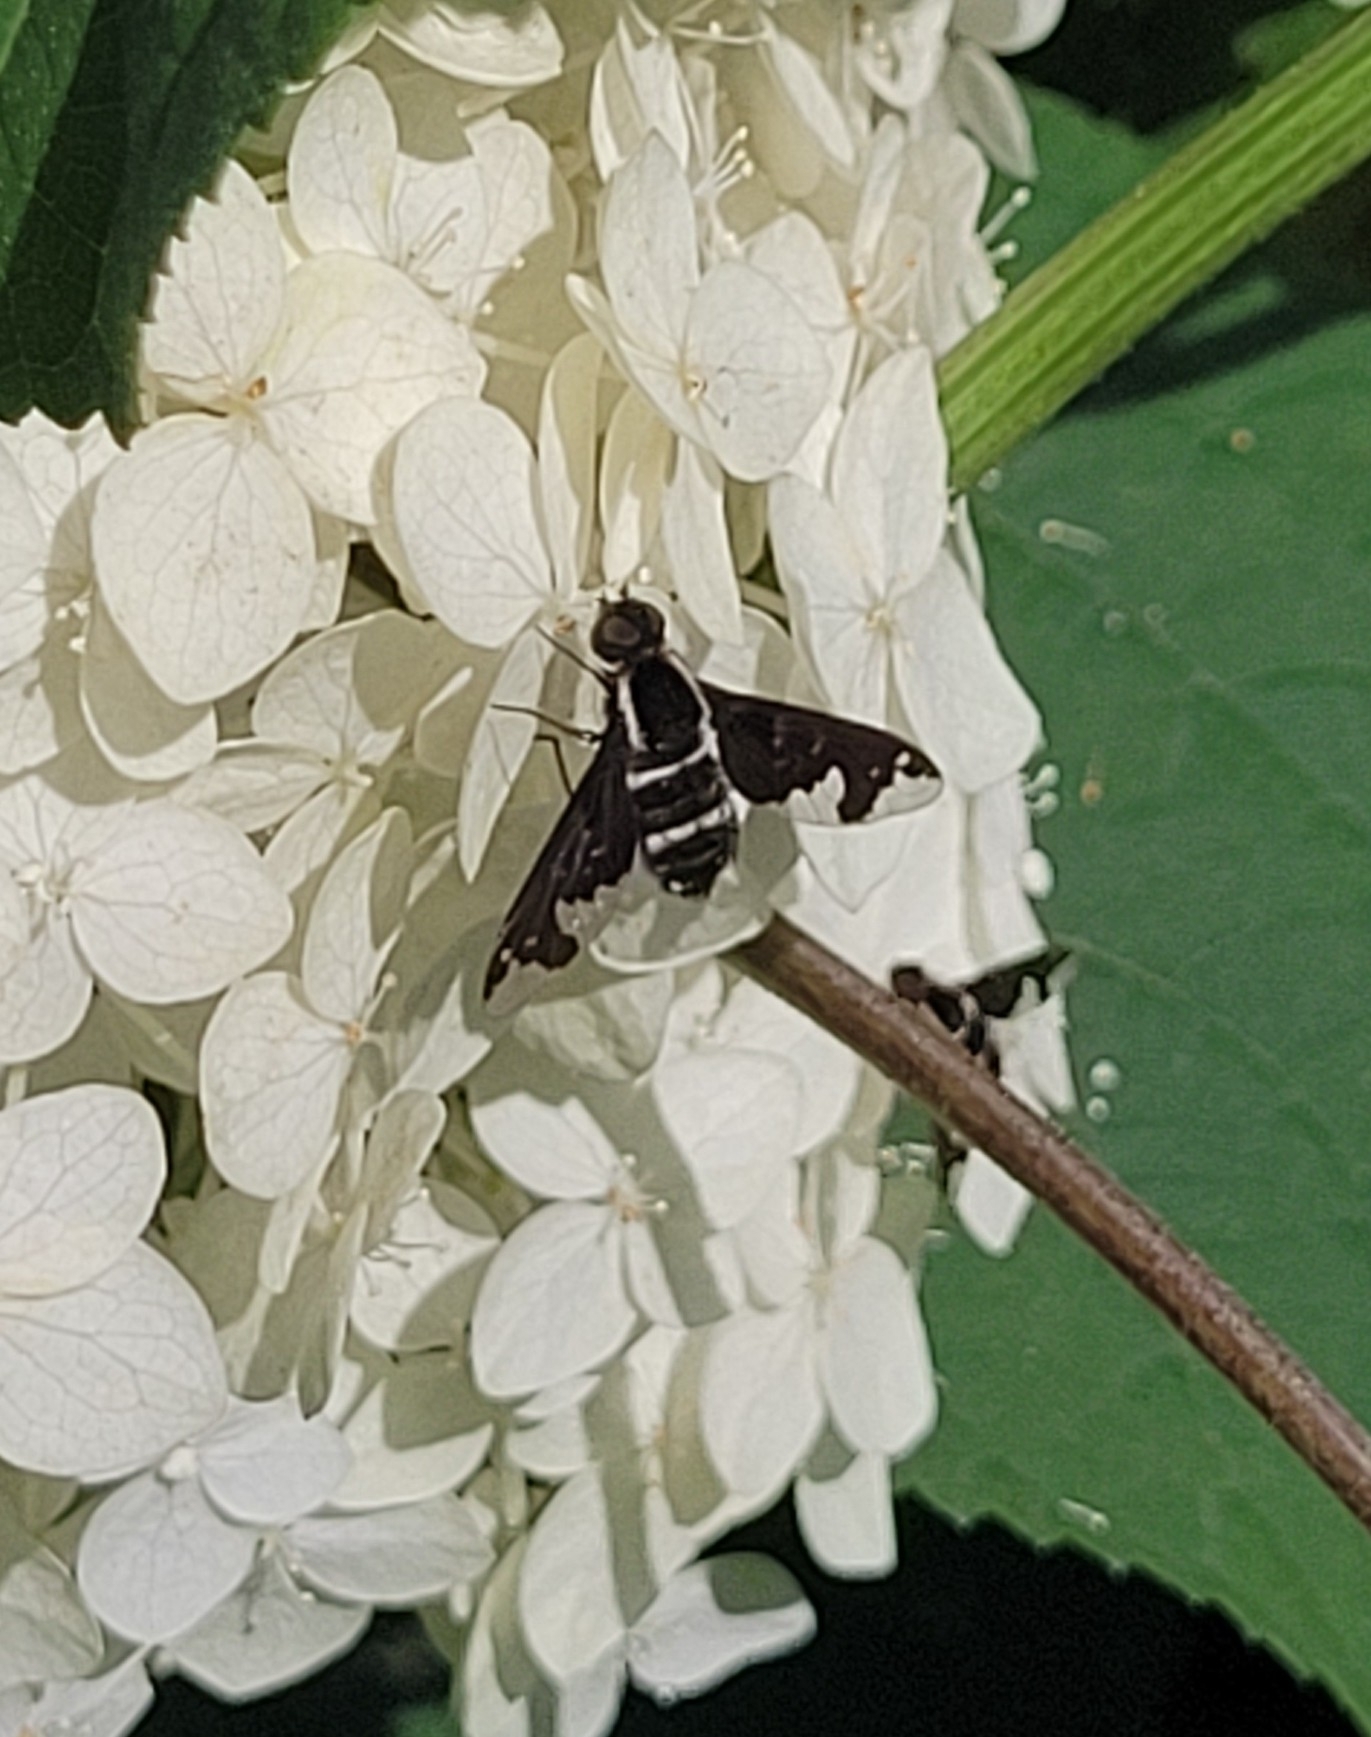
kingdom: Animalia
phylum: Arthropoda
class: Insecta
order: Diptera
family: Bombyliidae
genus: Hemipenthes
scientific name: Hemipenthes maura
